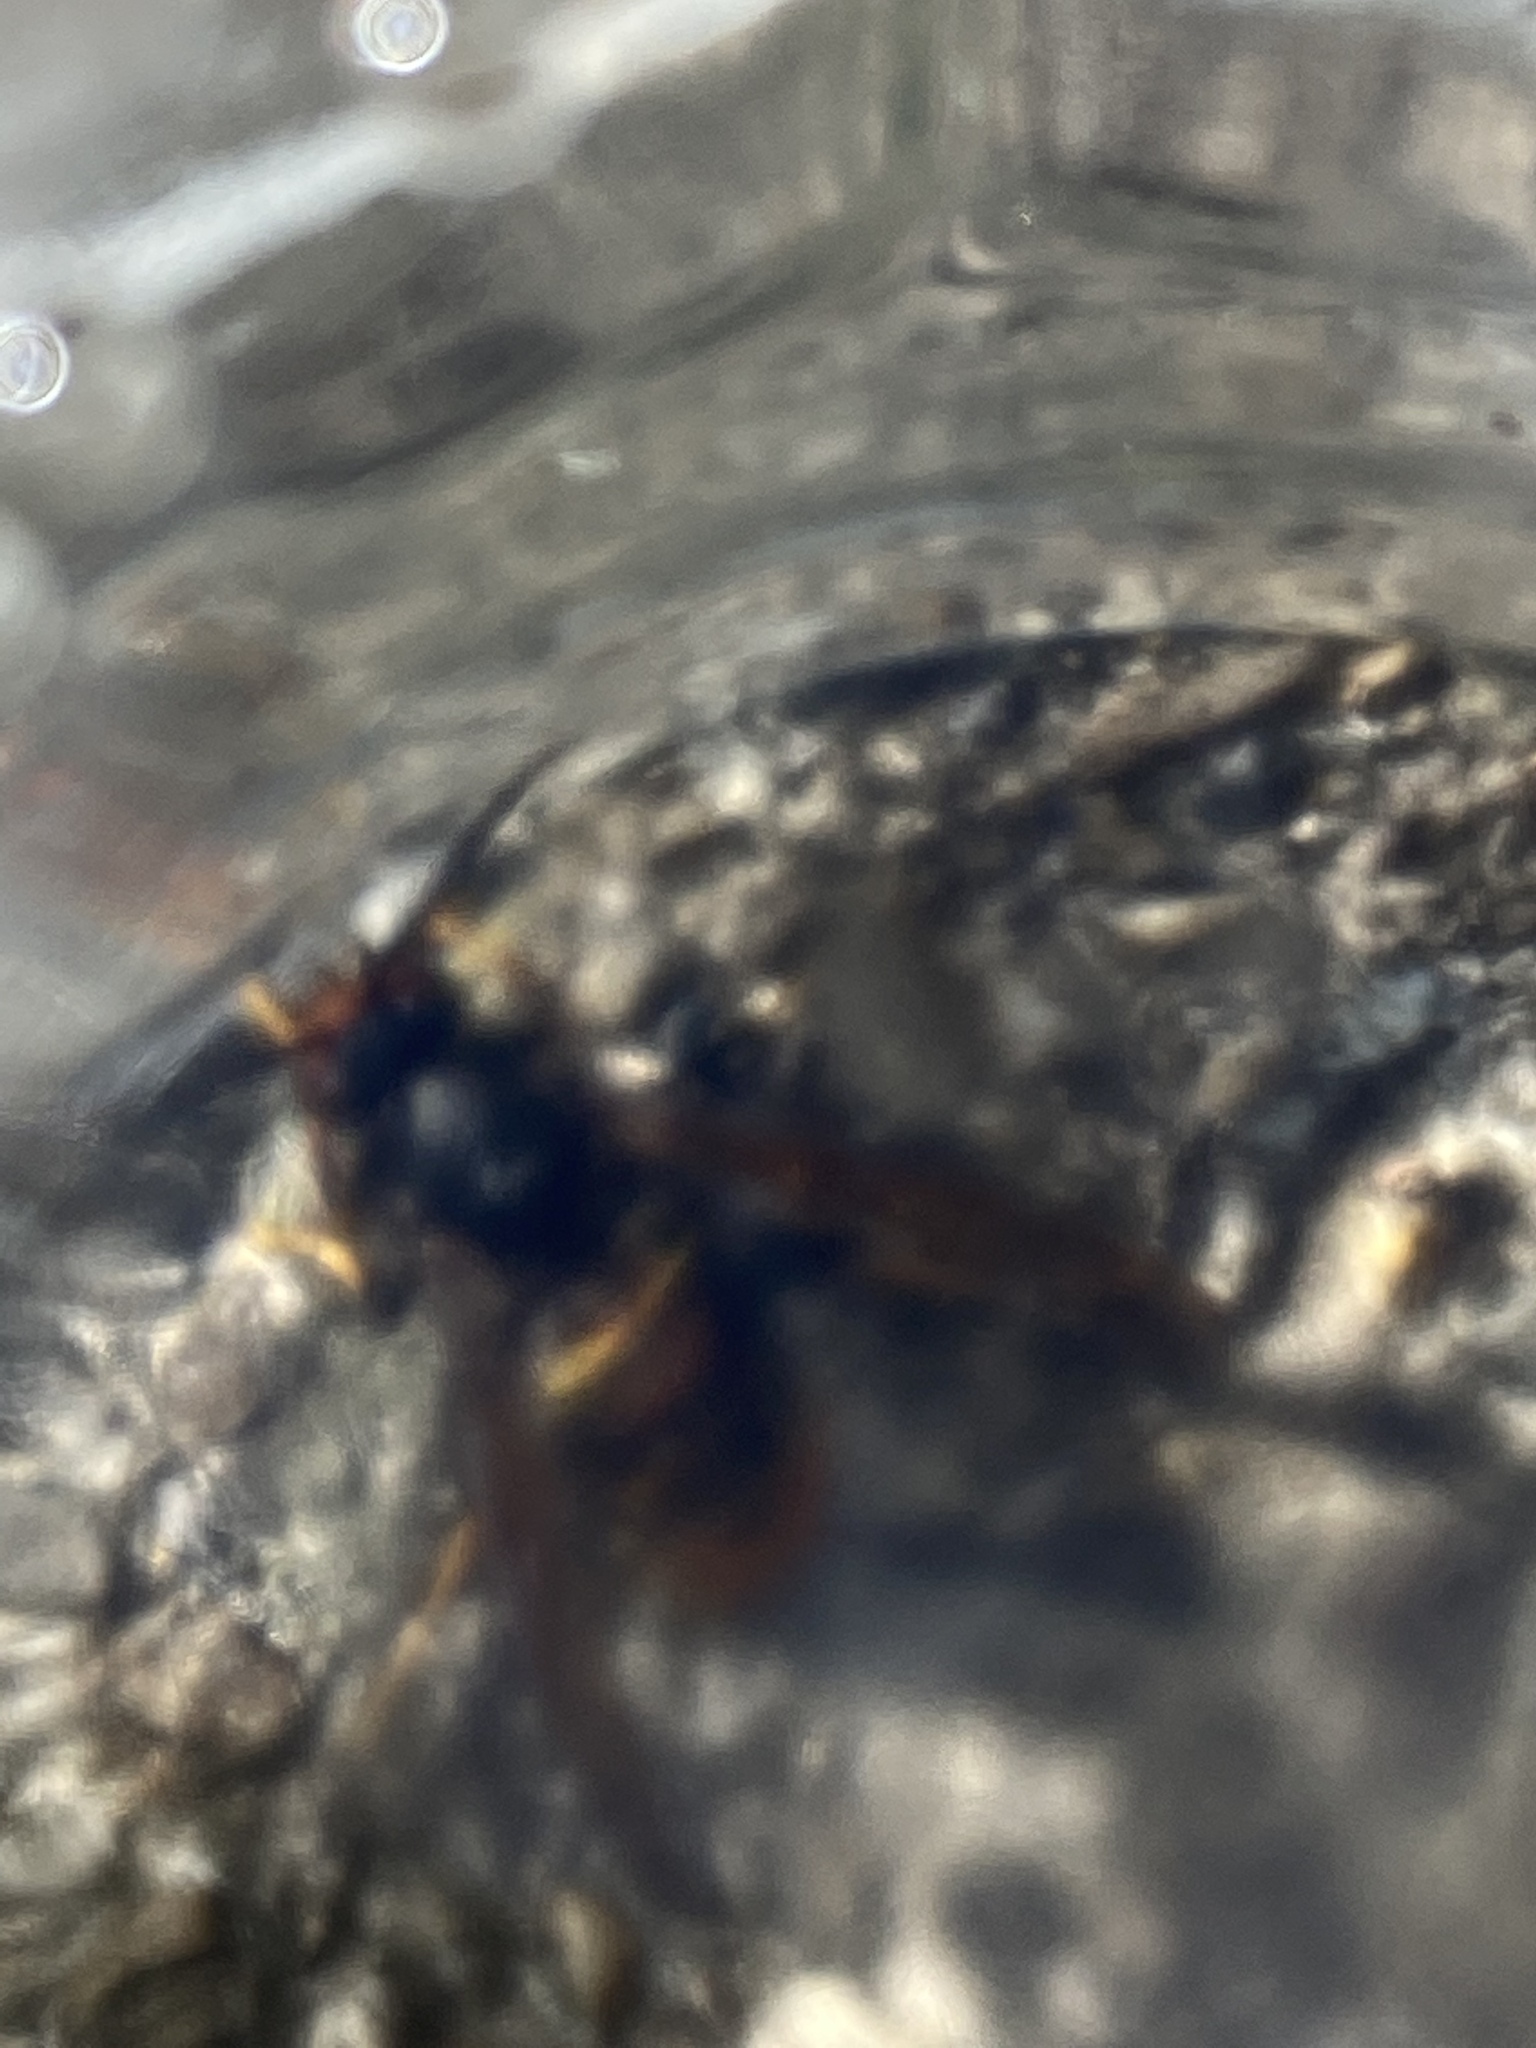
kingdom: Animalia
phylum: Arthropoda
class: Insecta
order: Hymenoptera
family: Vespidae
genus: Vespa
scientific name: Vespa velutina
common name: Asian hornet
